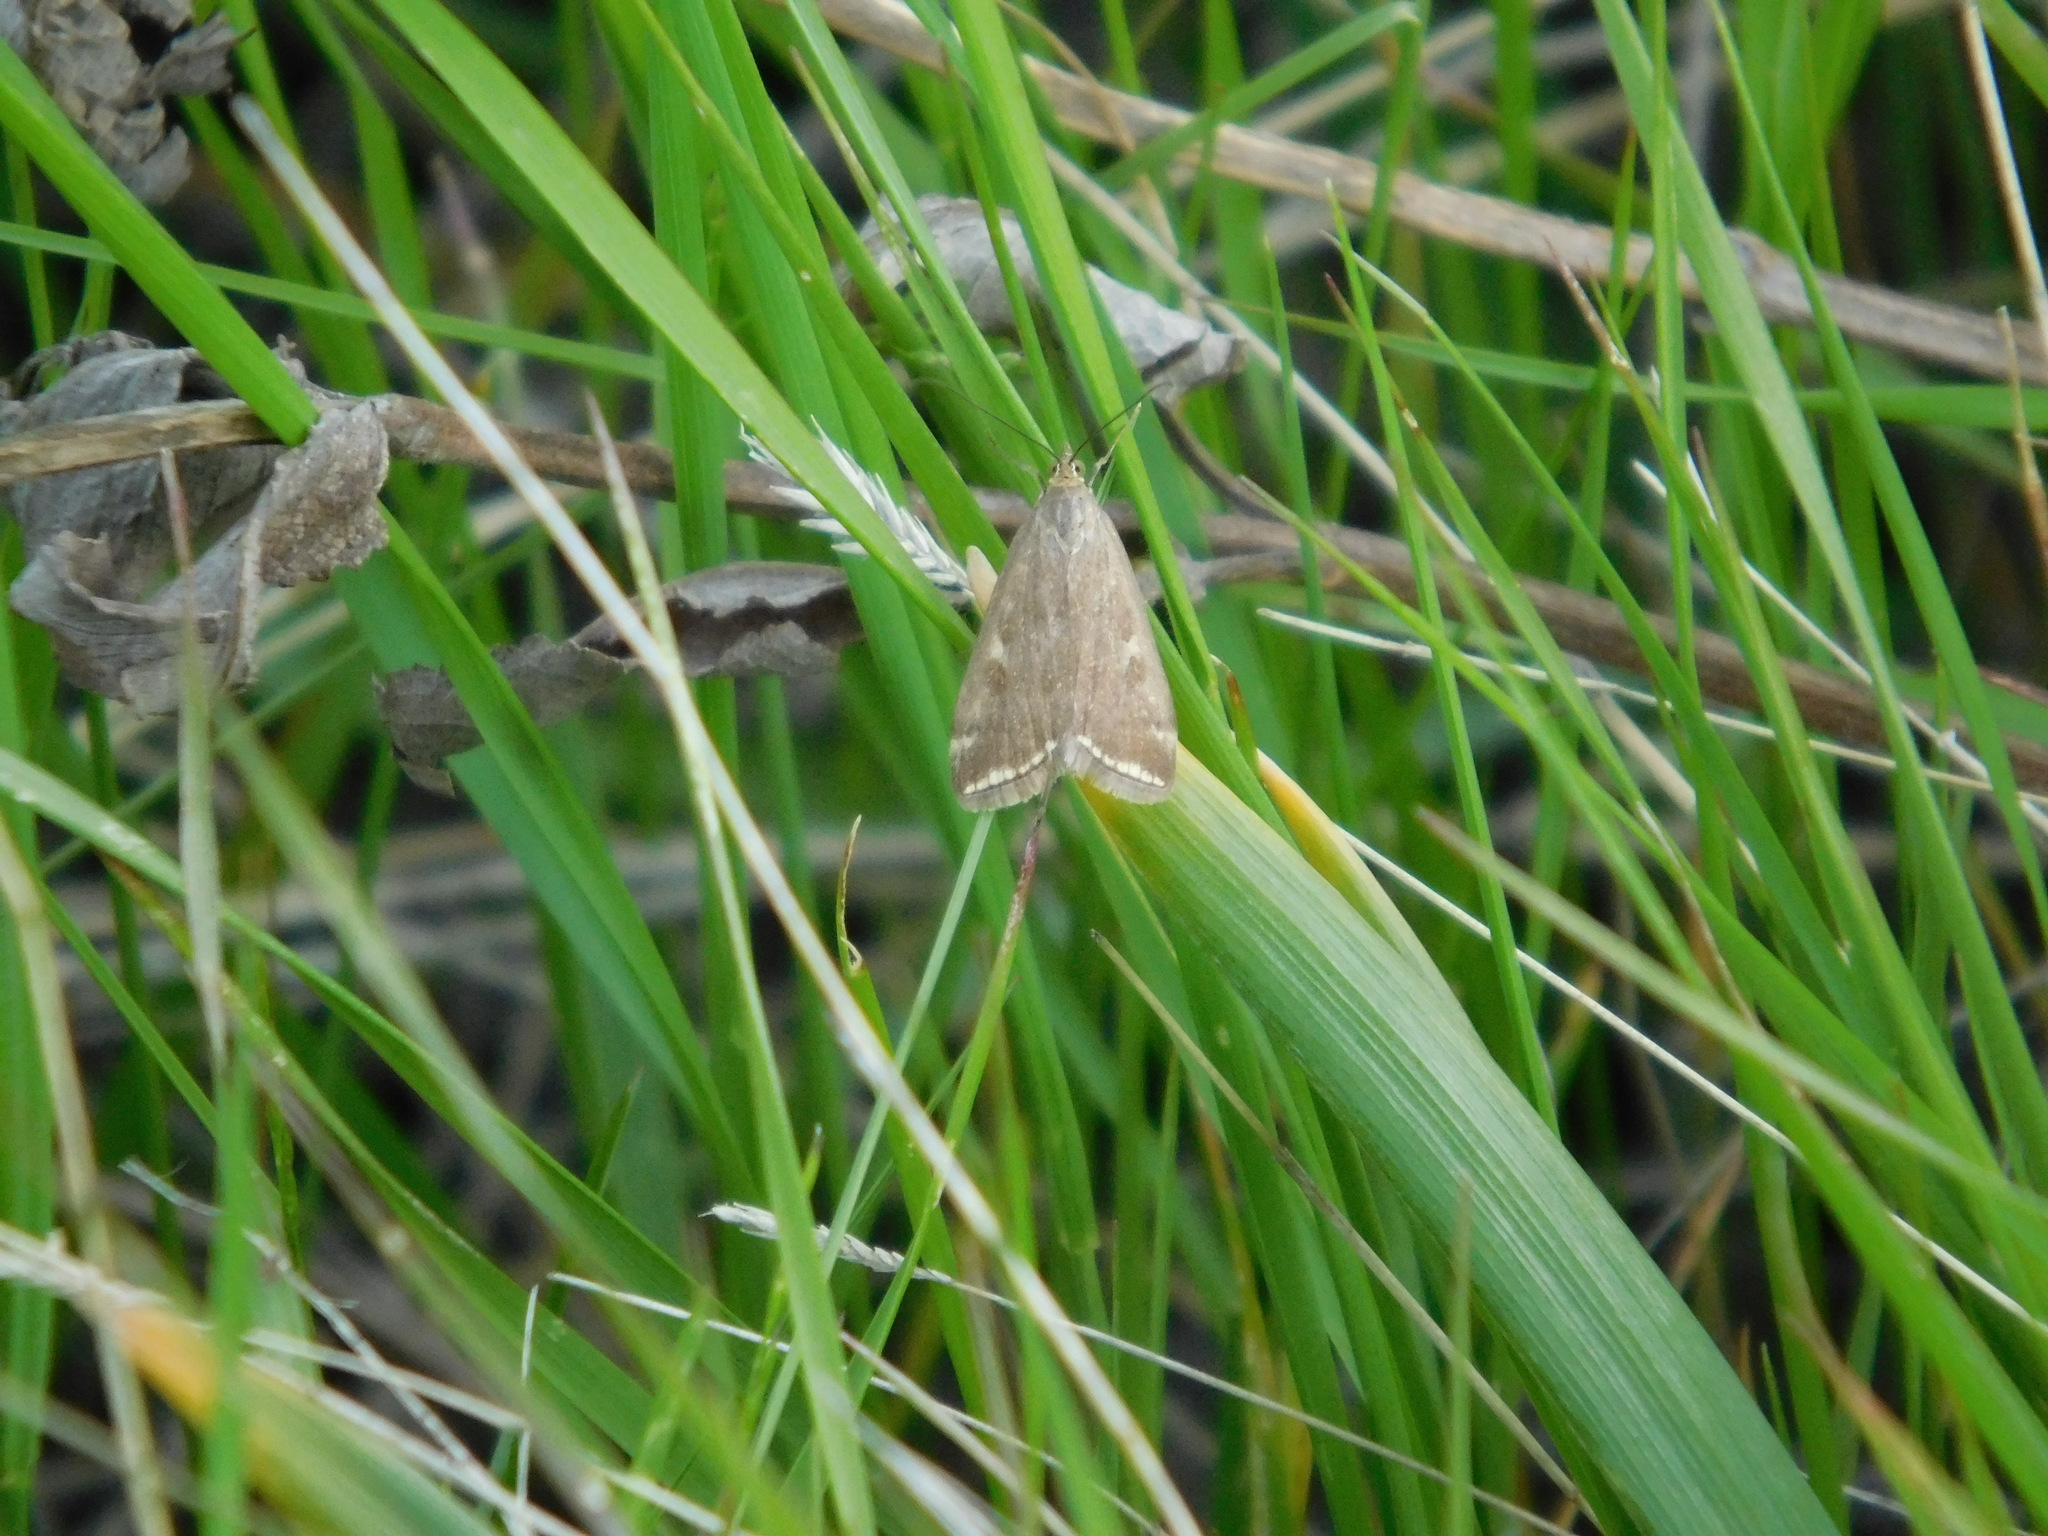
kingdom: Animalia
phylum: Arthropoda
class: Insecta
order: Lepidoptera
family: Crambidae
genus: Loxostege
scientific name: Loxostege sticticalis
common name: Crambid moth
